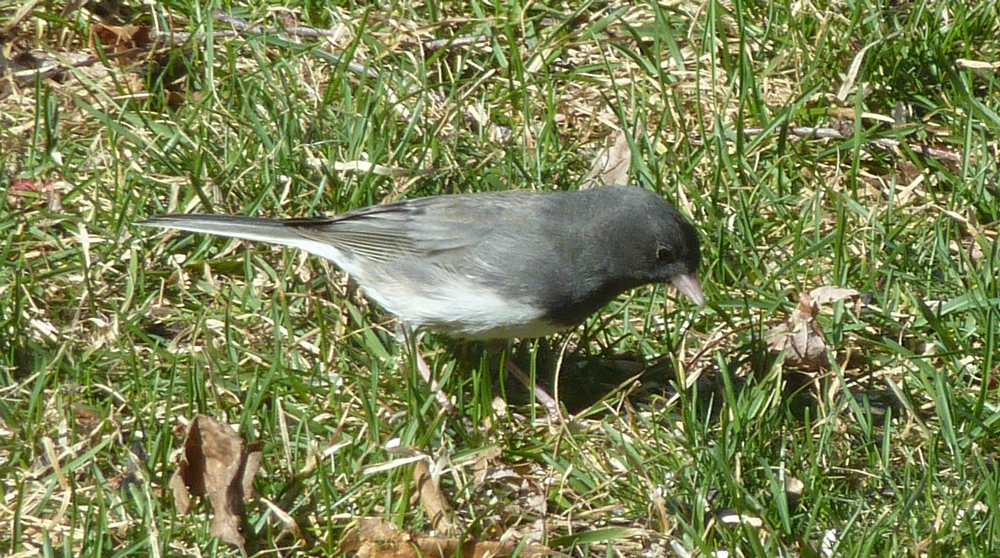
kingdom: Animalia
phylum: Chordata
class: Aves
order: Passeriformes
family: Passerellidae
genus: Junco
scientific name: Junco hyemalis
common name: Dark-eyed junco
